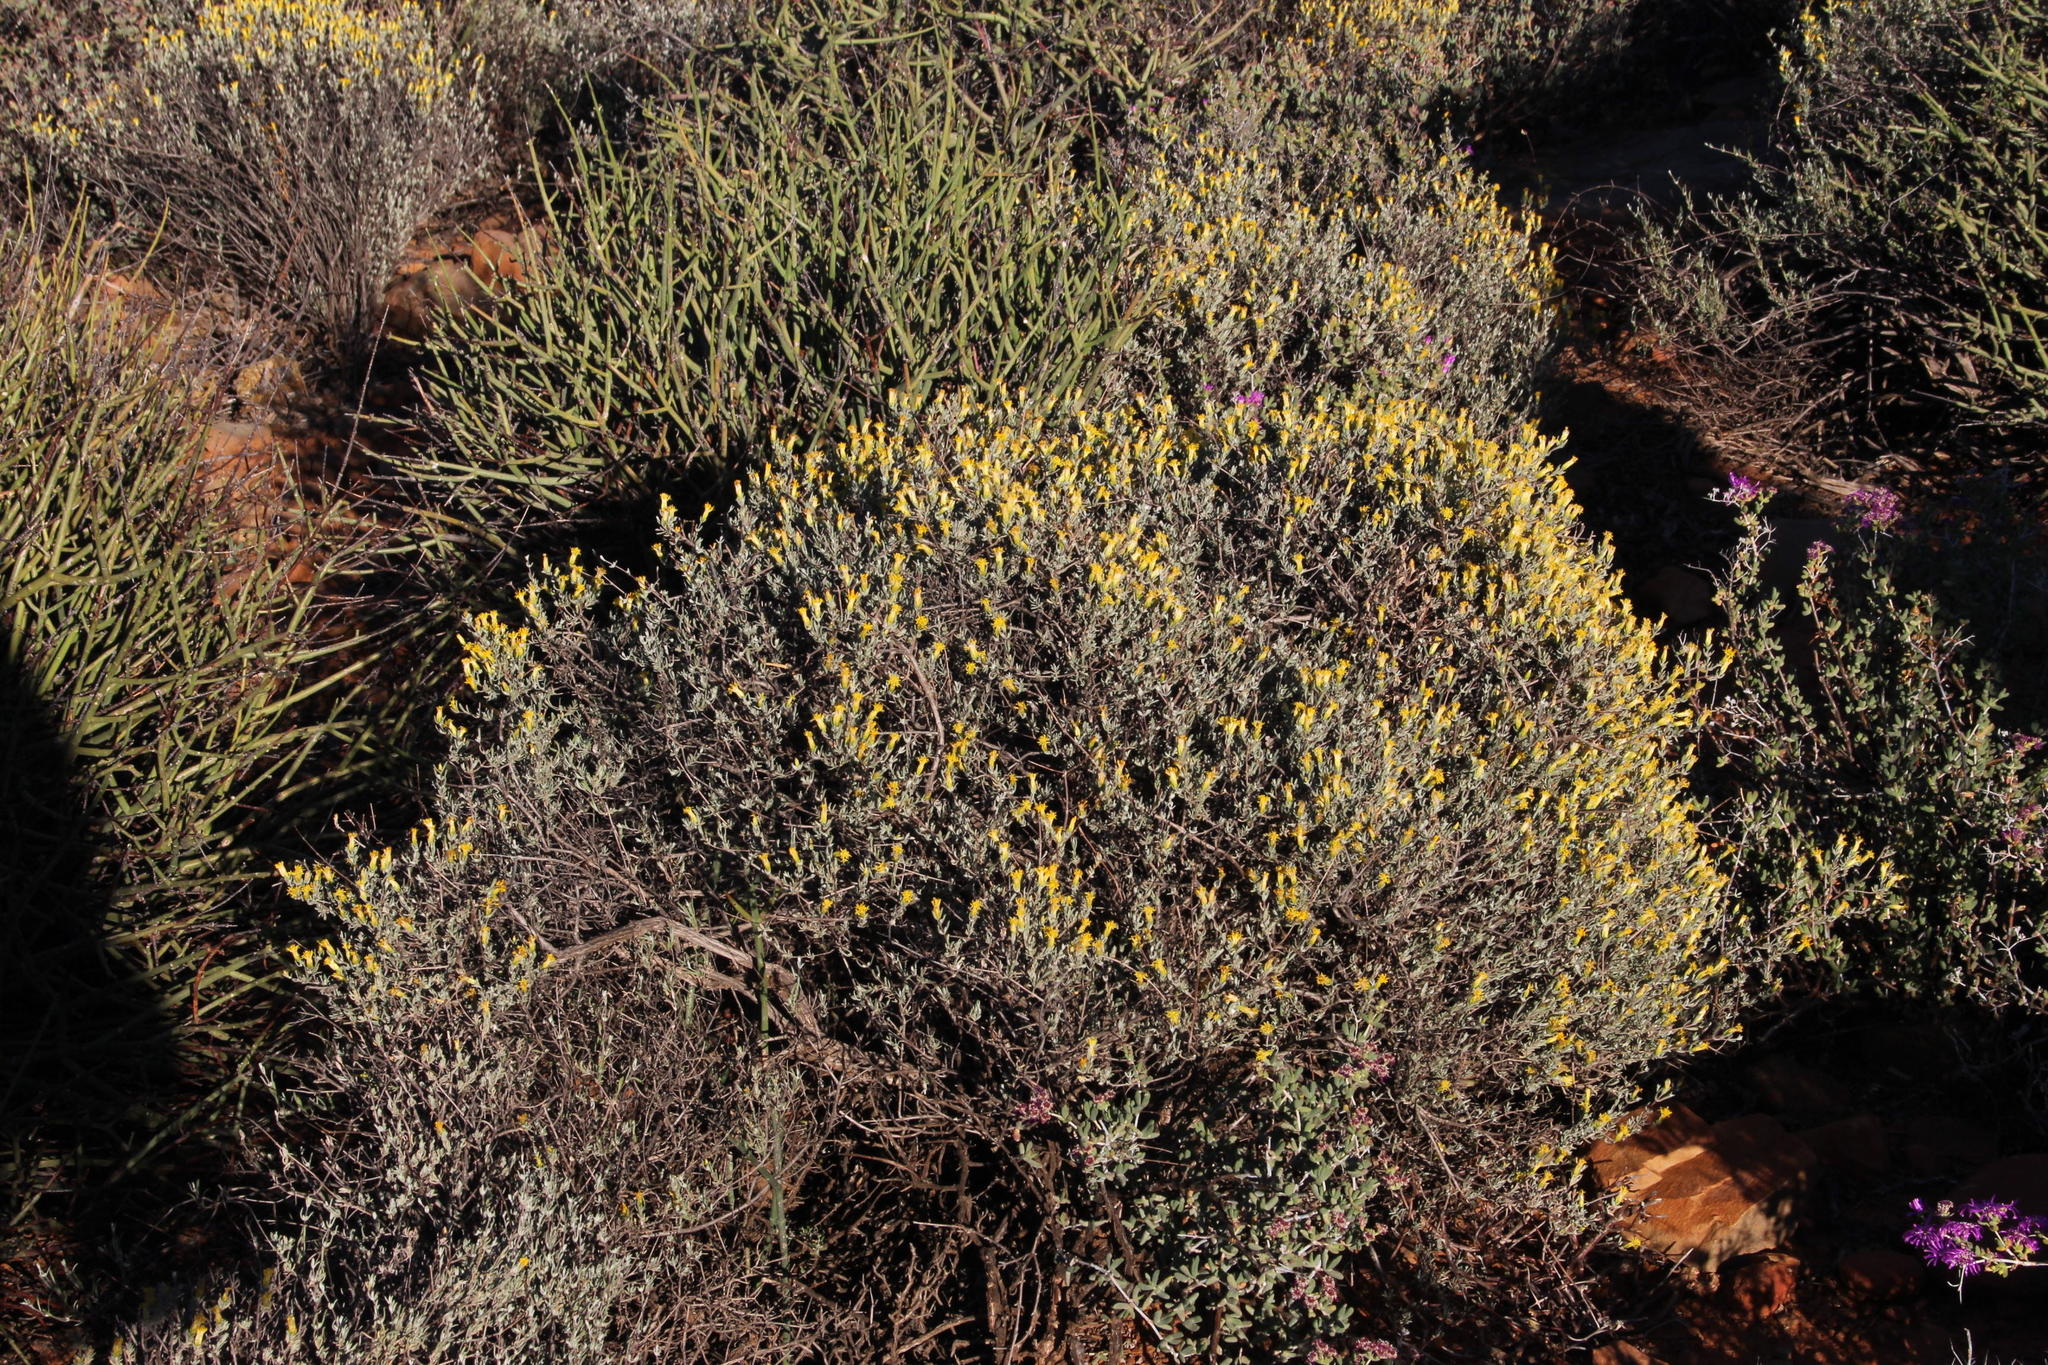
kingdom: Plantae
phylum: Tracheophyta
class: Magnoliopsida
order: Asterales
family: Asteraceae
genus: Pteronia
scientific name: Pteronia incana
